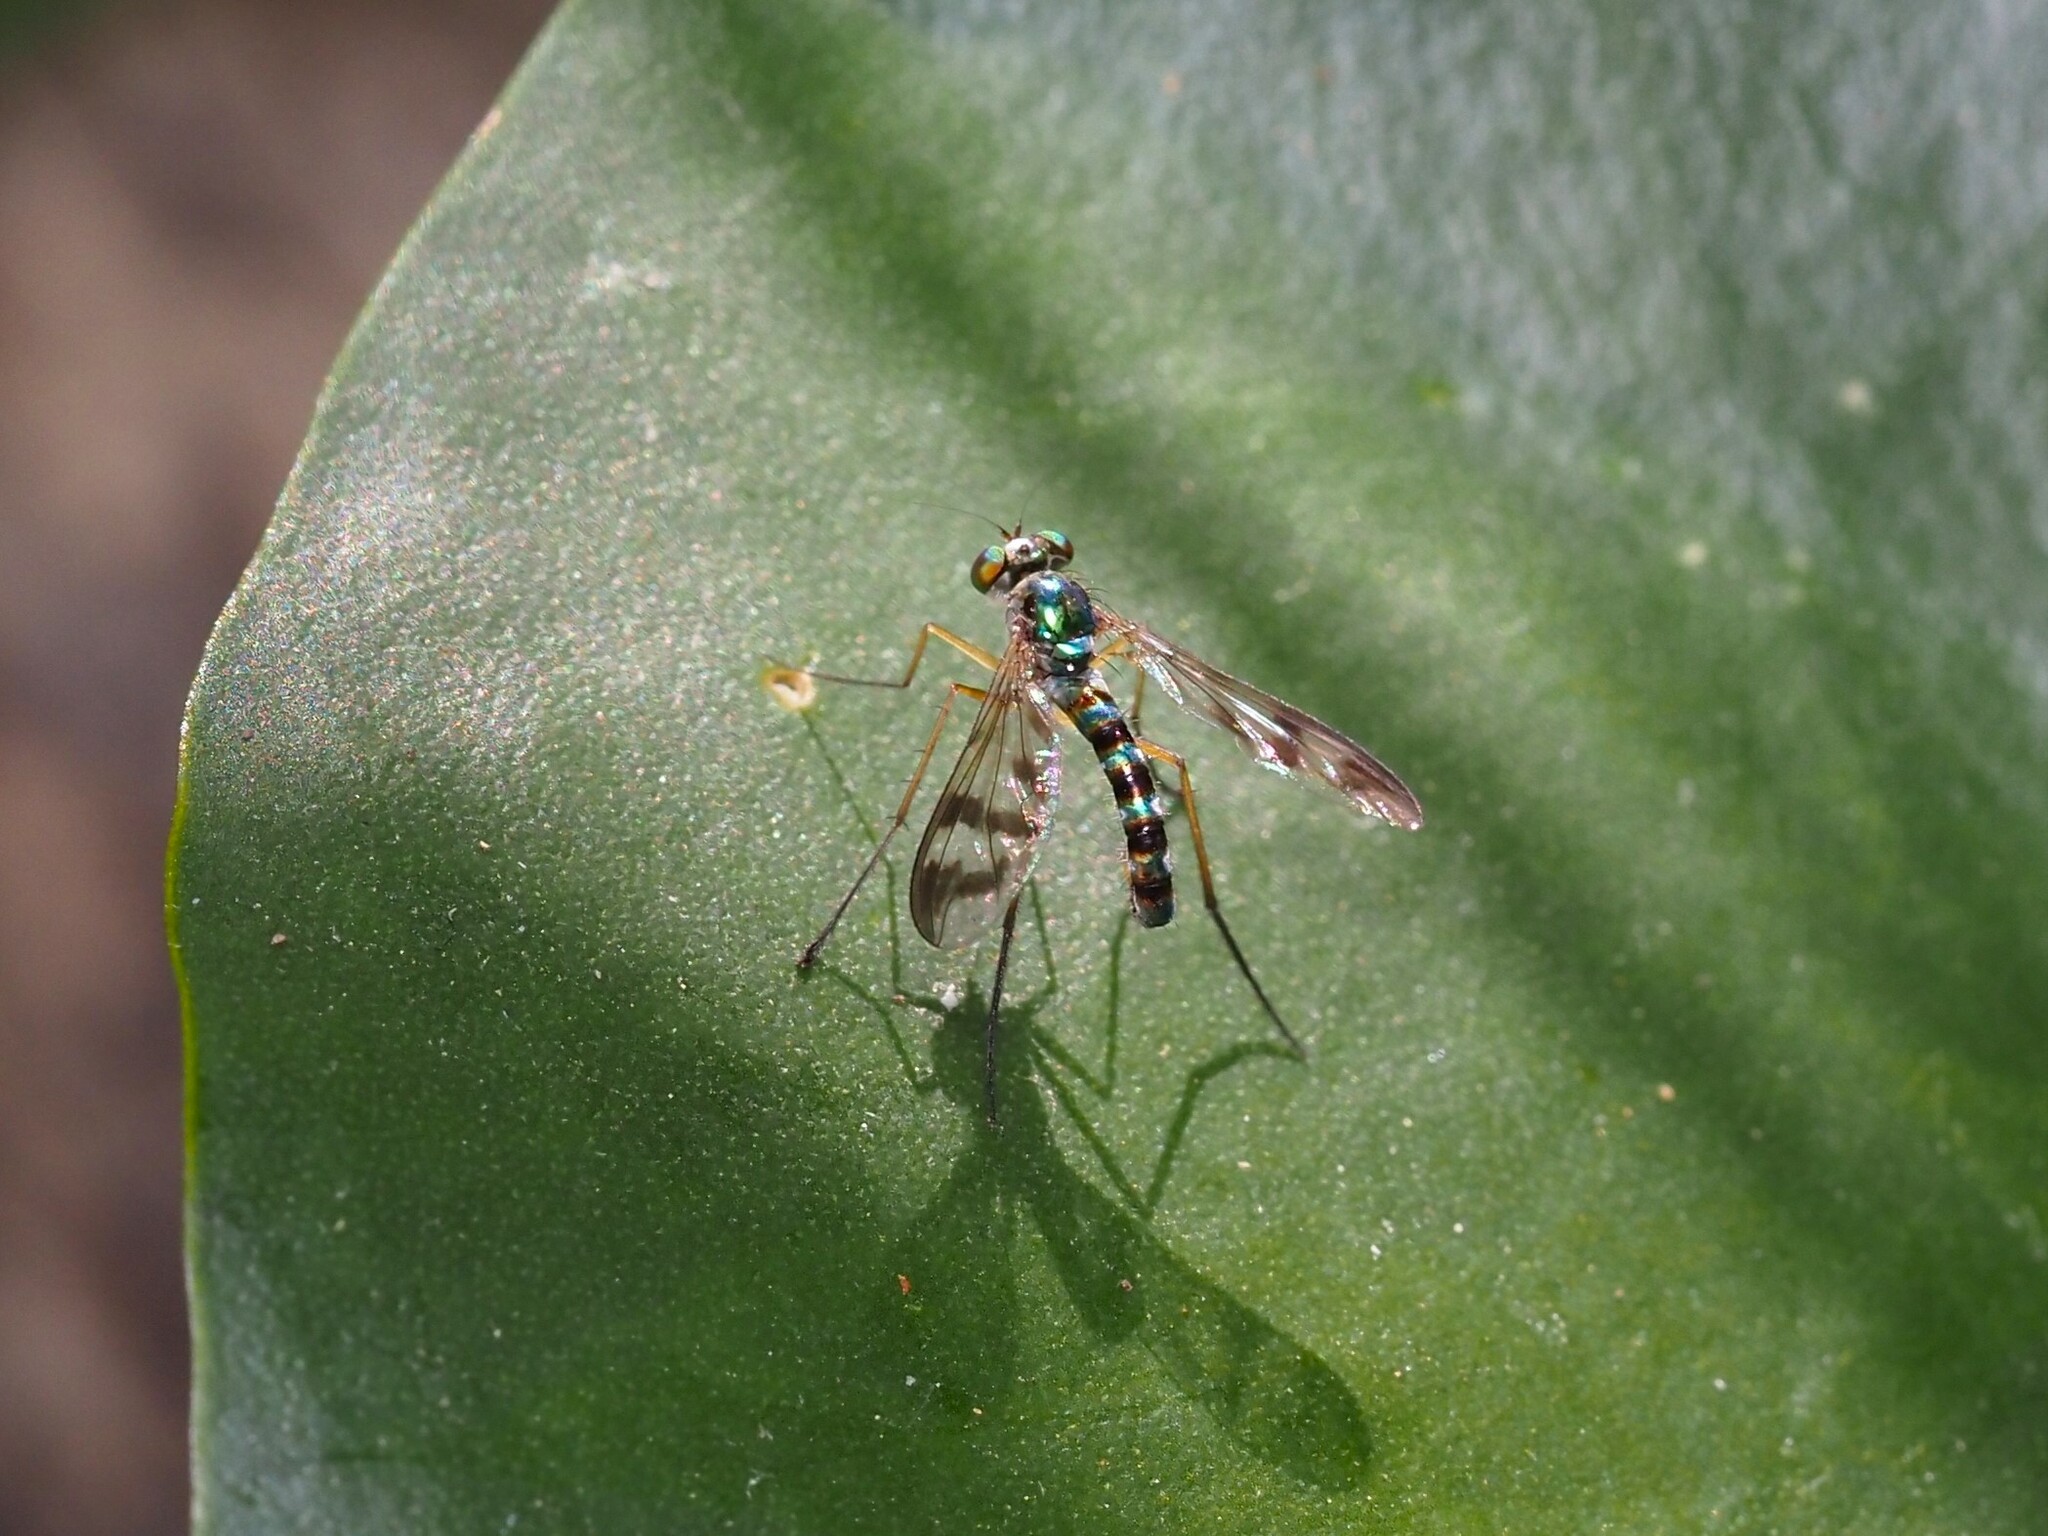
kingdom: Animalia
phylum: Arthropoda
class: Insecta
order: Diptera
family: Dolichopodidae
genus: Heteropsilopus
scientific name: Heteropsilopus ingenuum
